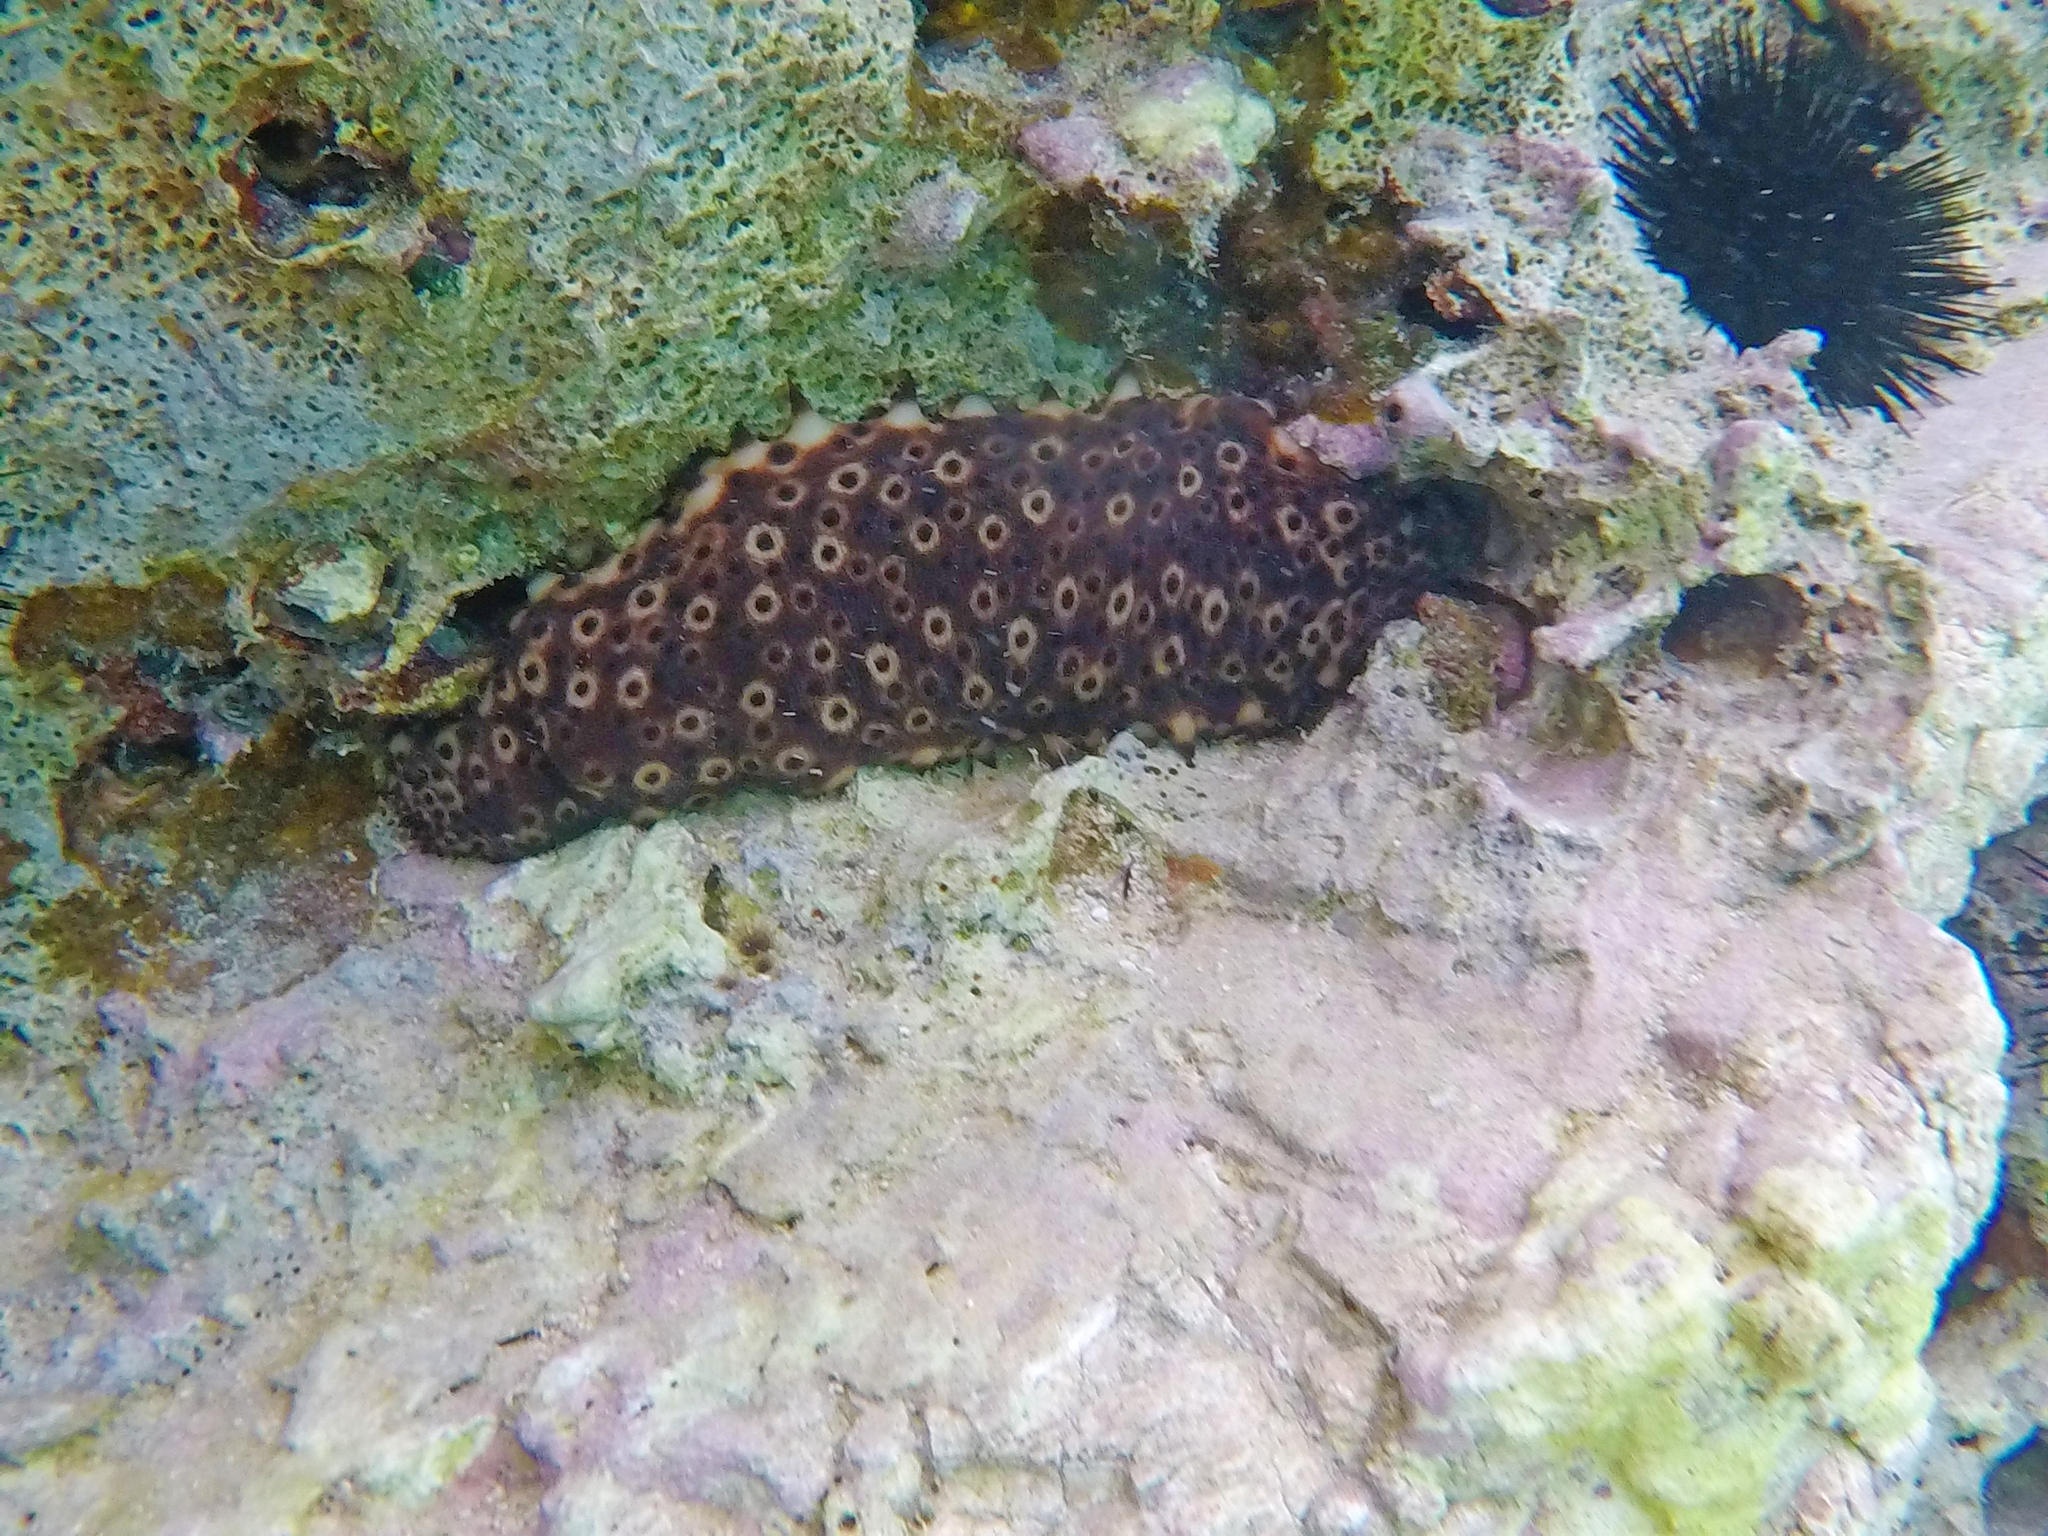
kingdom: Animalia
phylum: Echinodermata
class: Holothuroidea
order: Holothuriida
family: Holothuriidae
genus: Holothuria
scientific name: Holothuria sanctori
